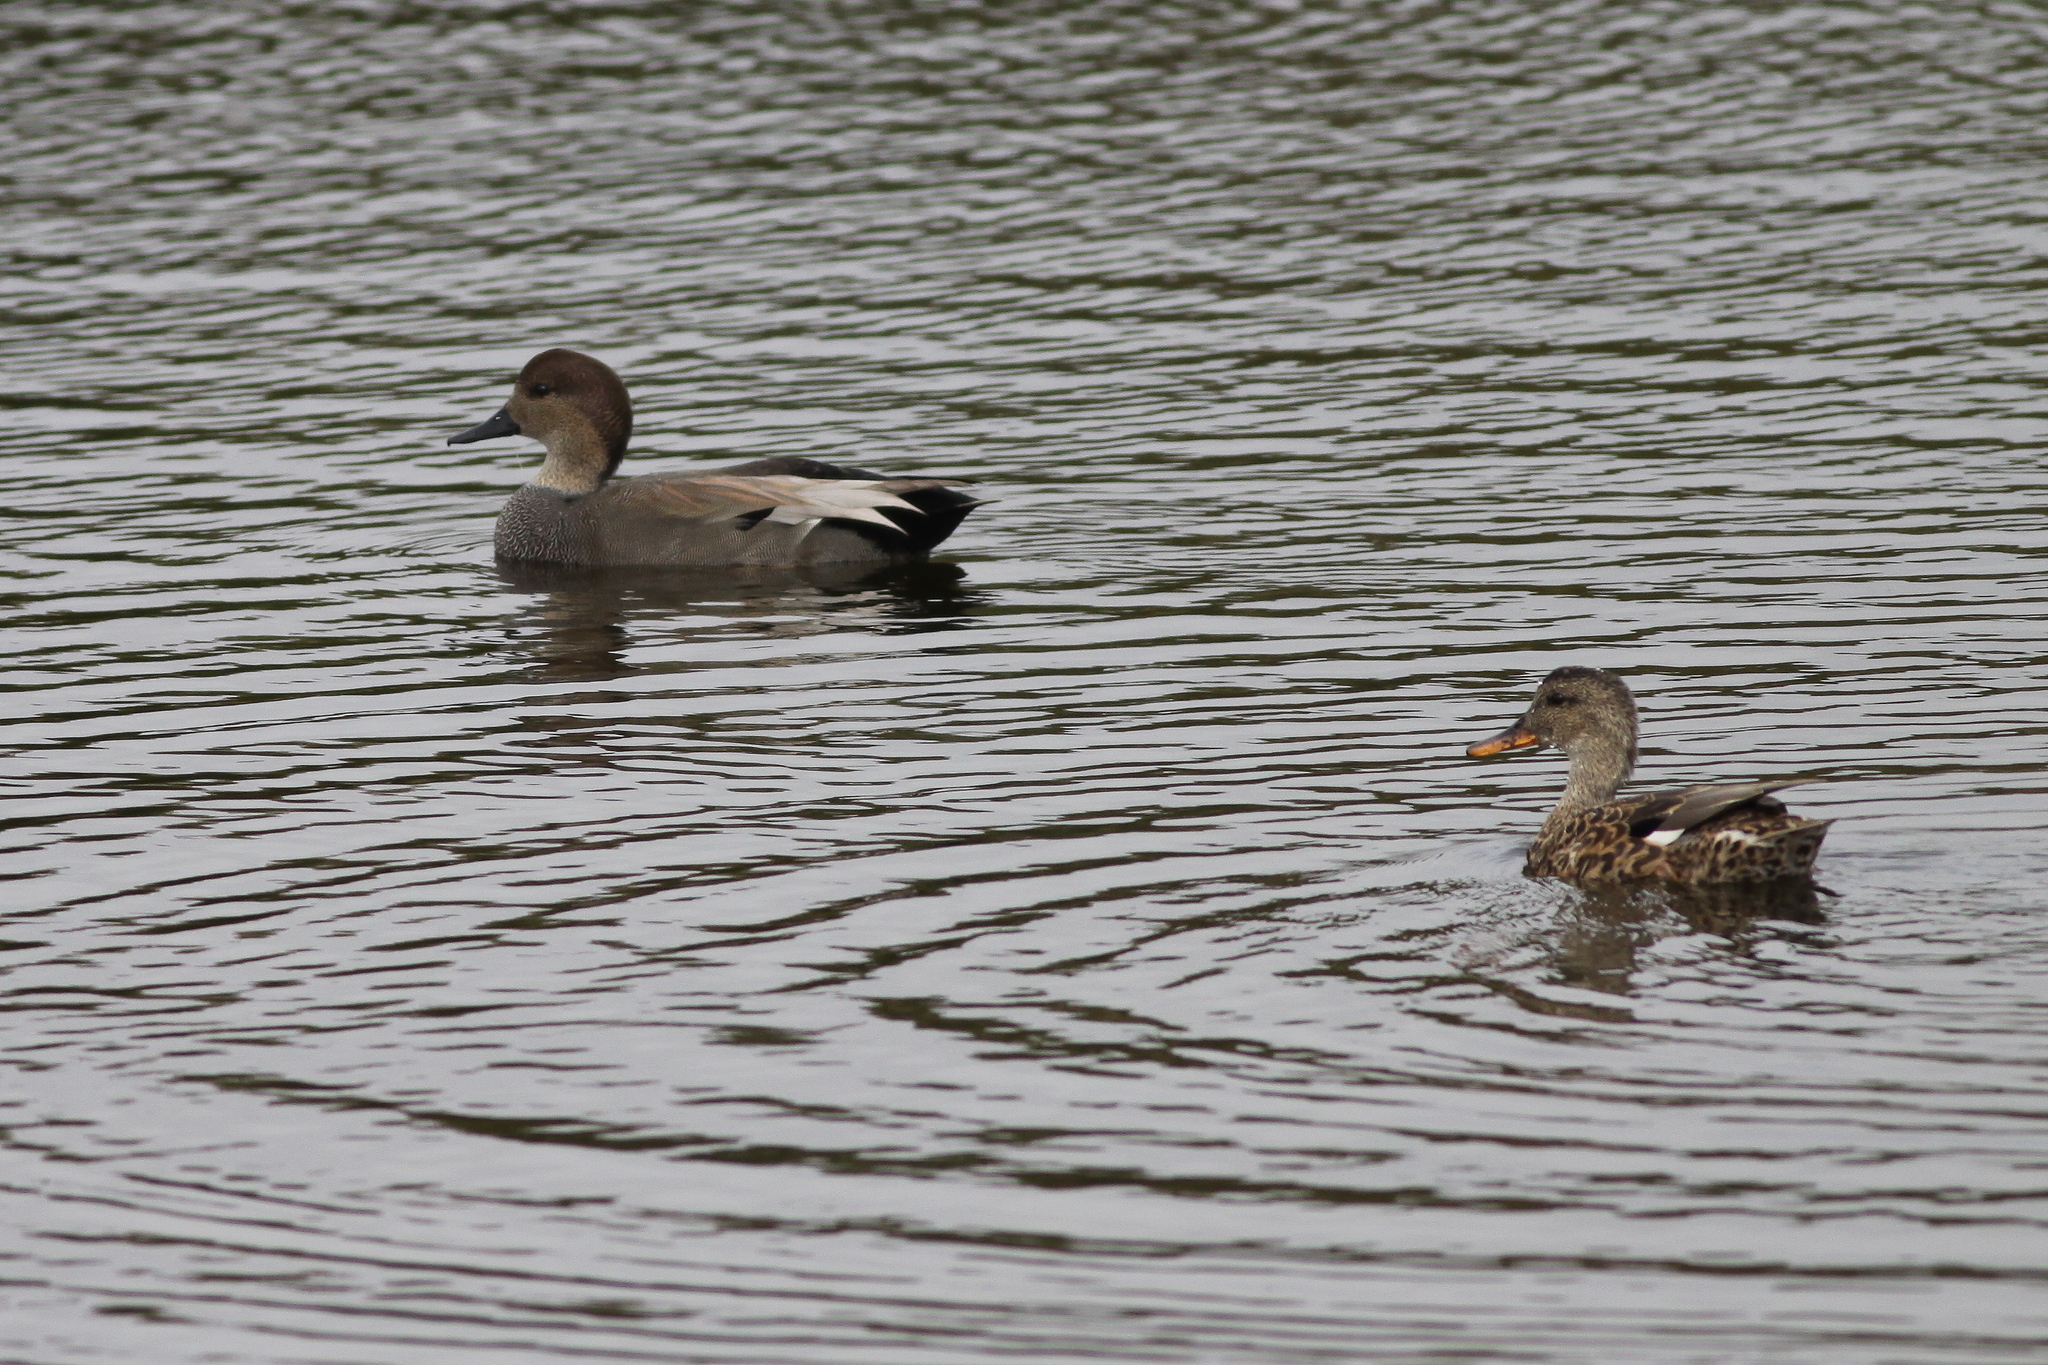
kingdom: Animalia
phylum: Chordata
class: Aves
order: Anseriformes
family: Anatidae
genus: Mareca
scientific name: Mareca strepera
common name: Gadwall
